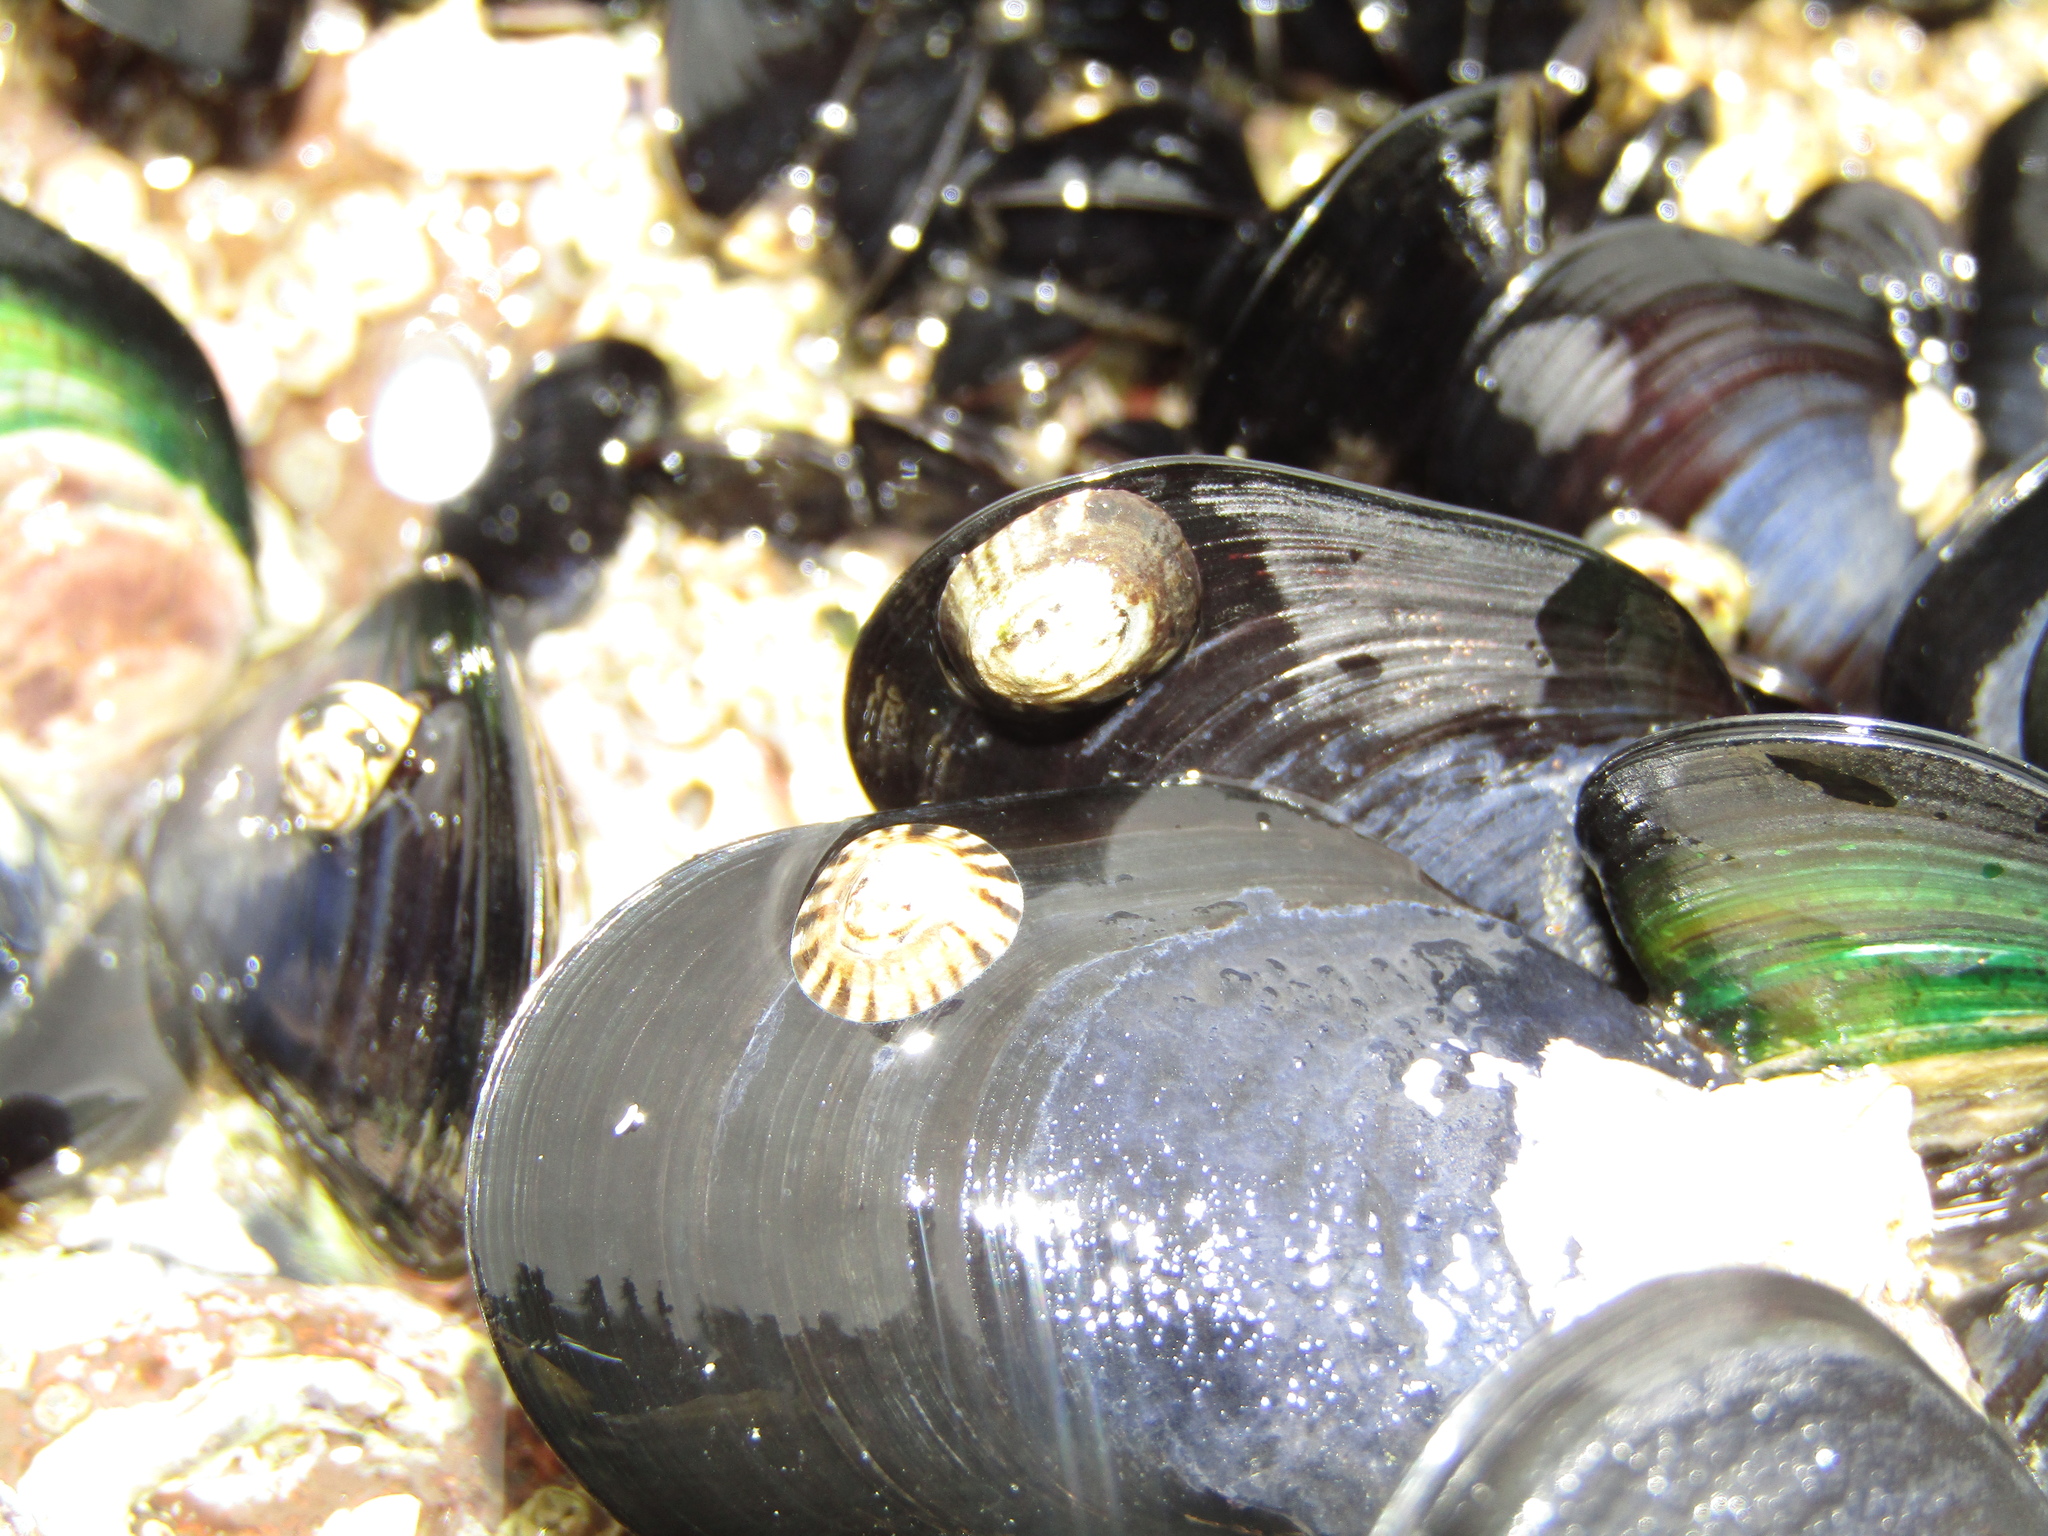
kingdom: Animalia
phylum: Mollusca
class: Gastropoda
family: Lottiidae
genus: Notoacmea
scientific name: Notoacmea parviconoidea
